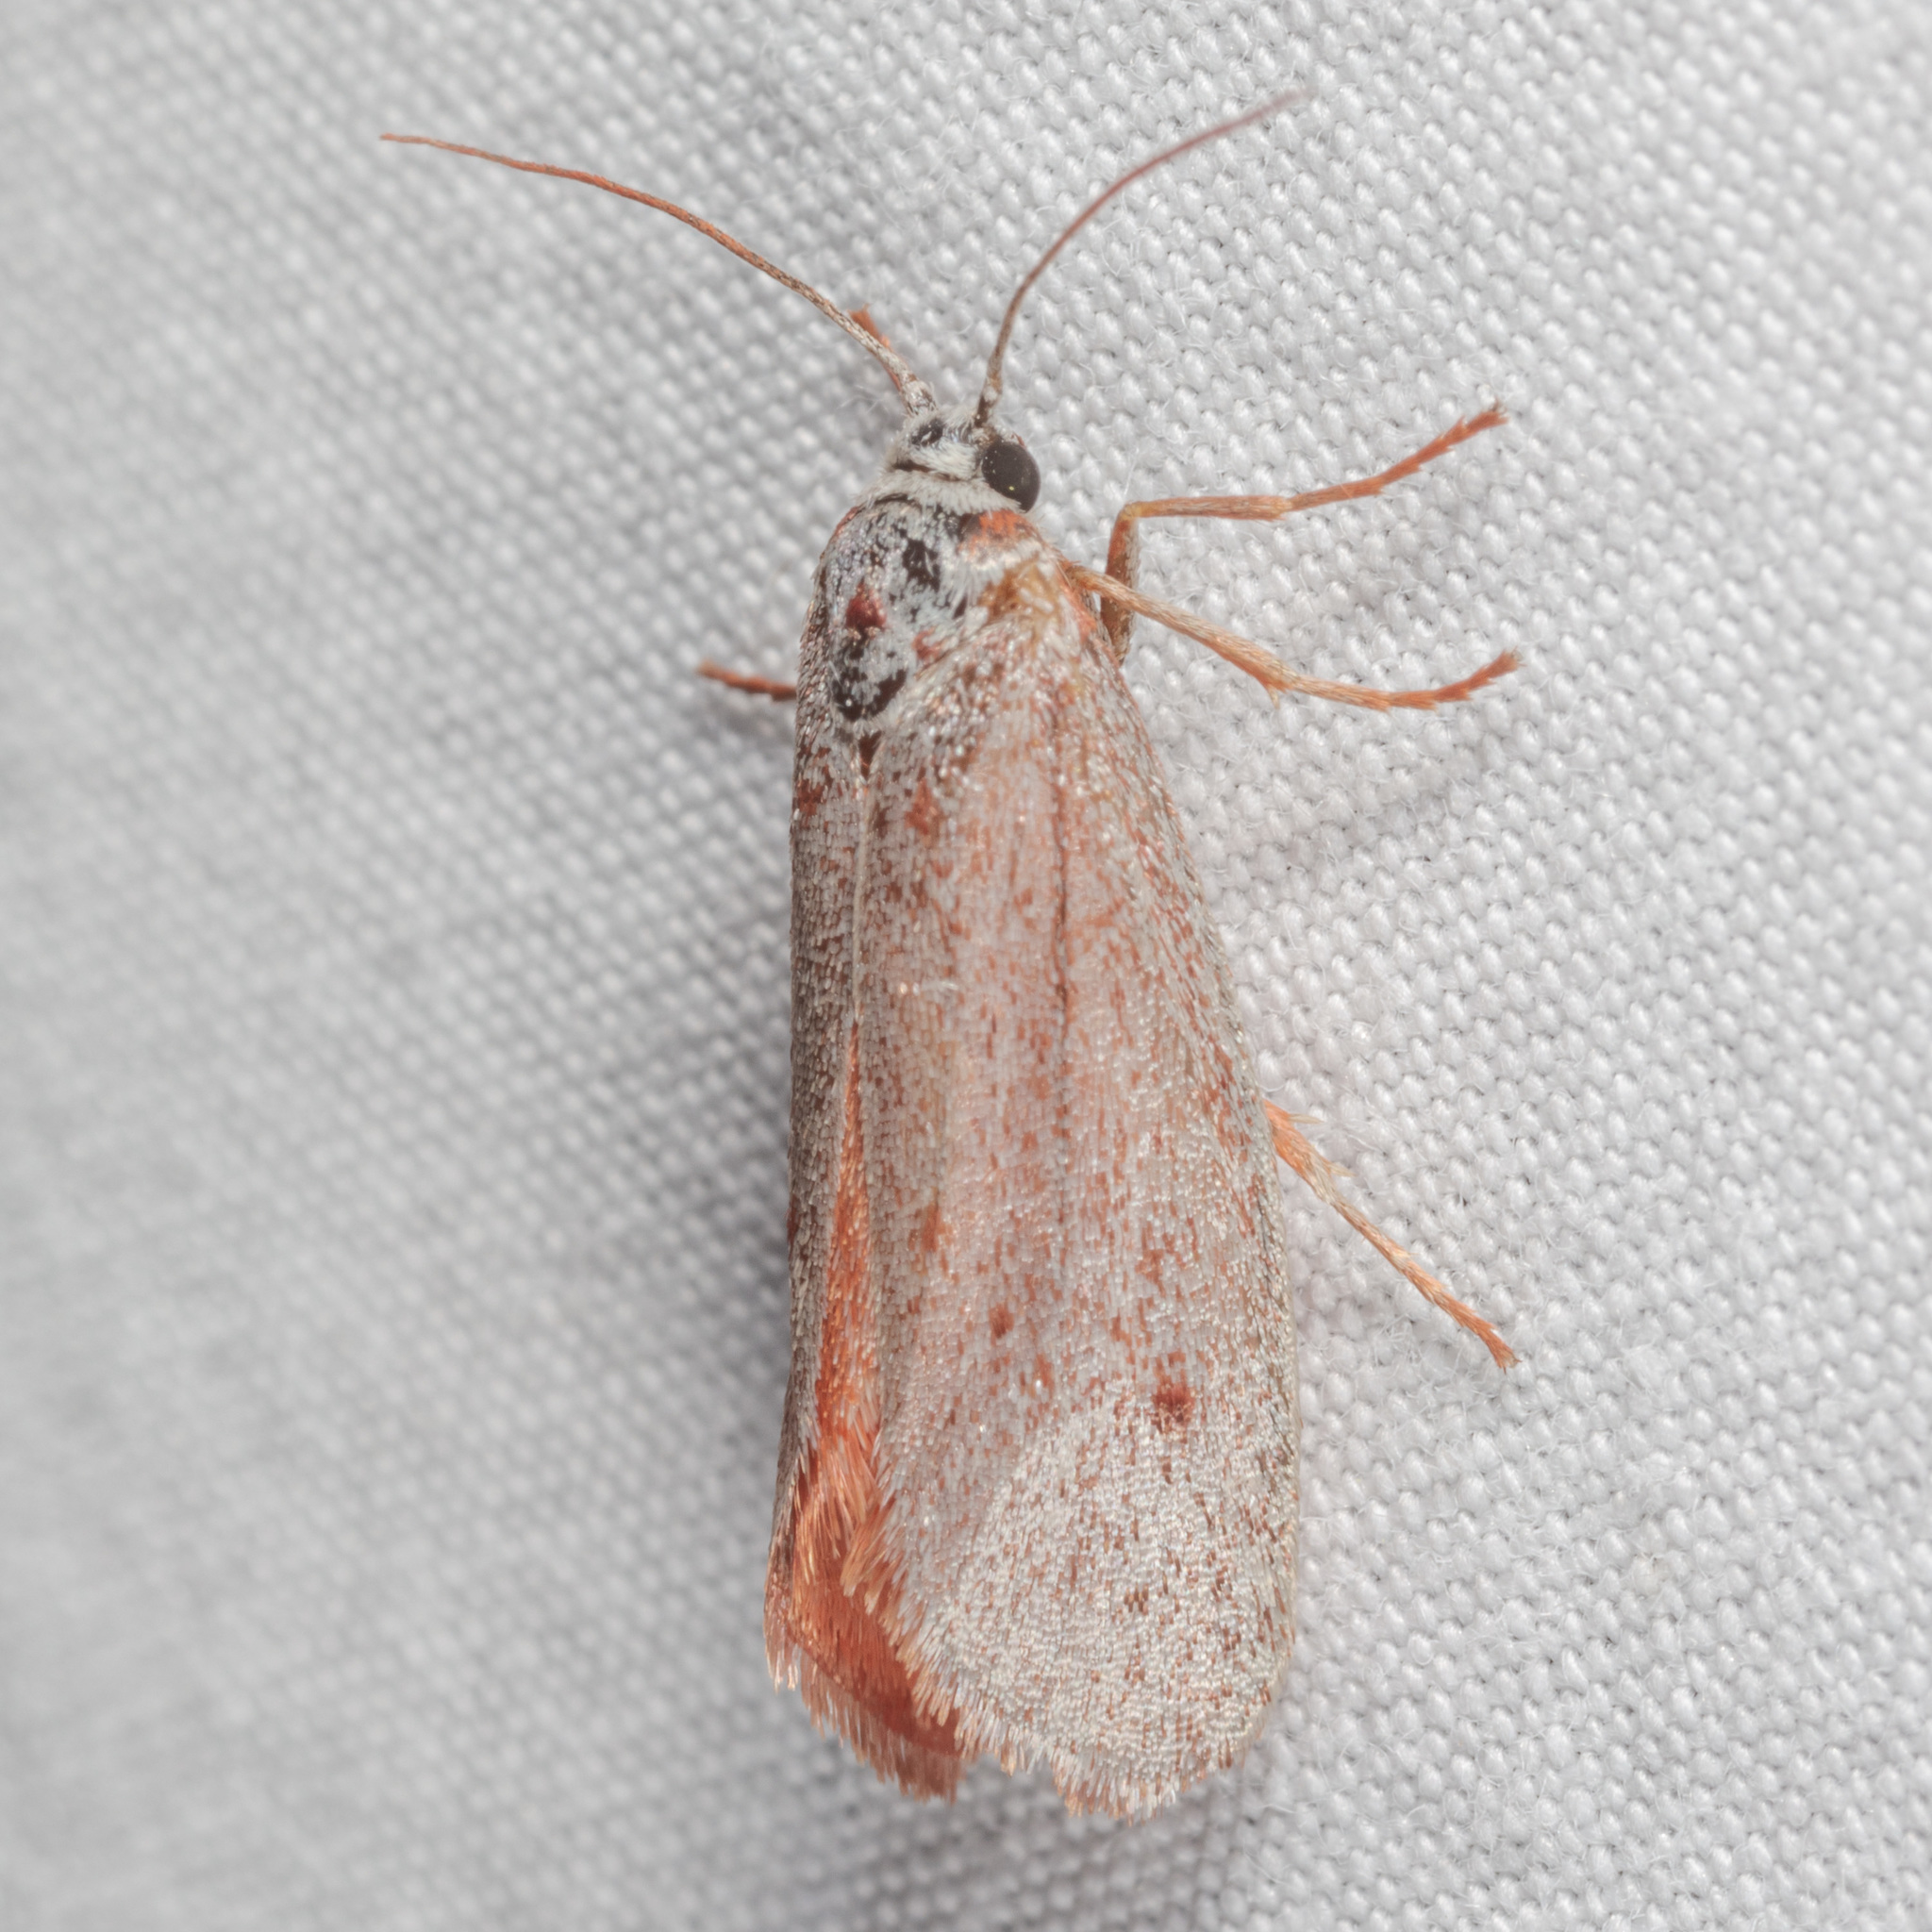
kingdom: Animalia
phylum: Arthropoda
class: Insecta
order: Lepidoptera
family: Lacturidae
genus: Lactura
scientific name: Lactura
